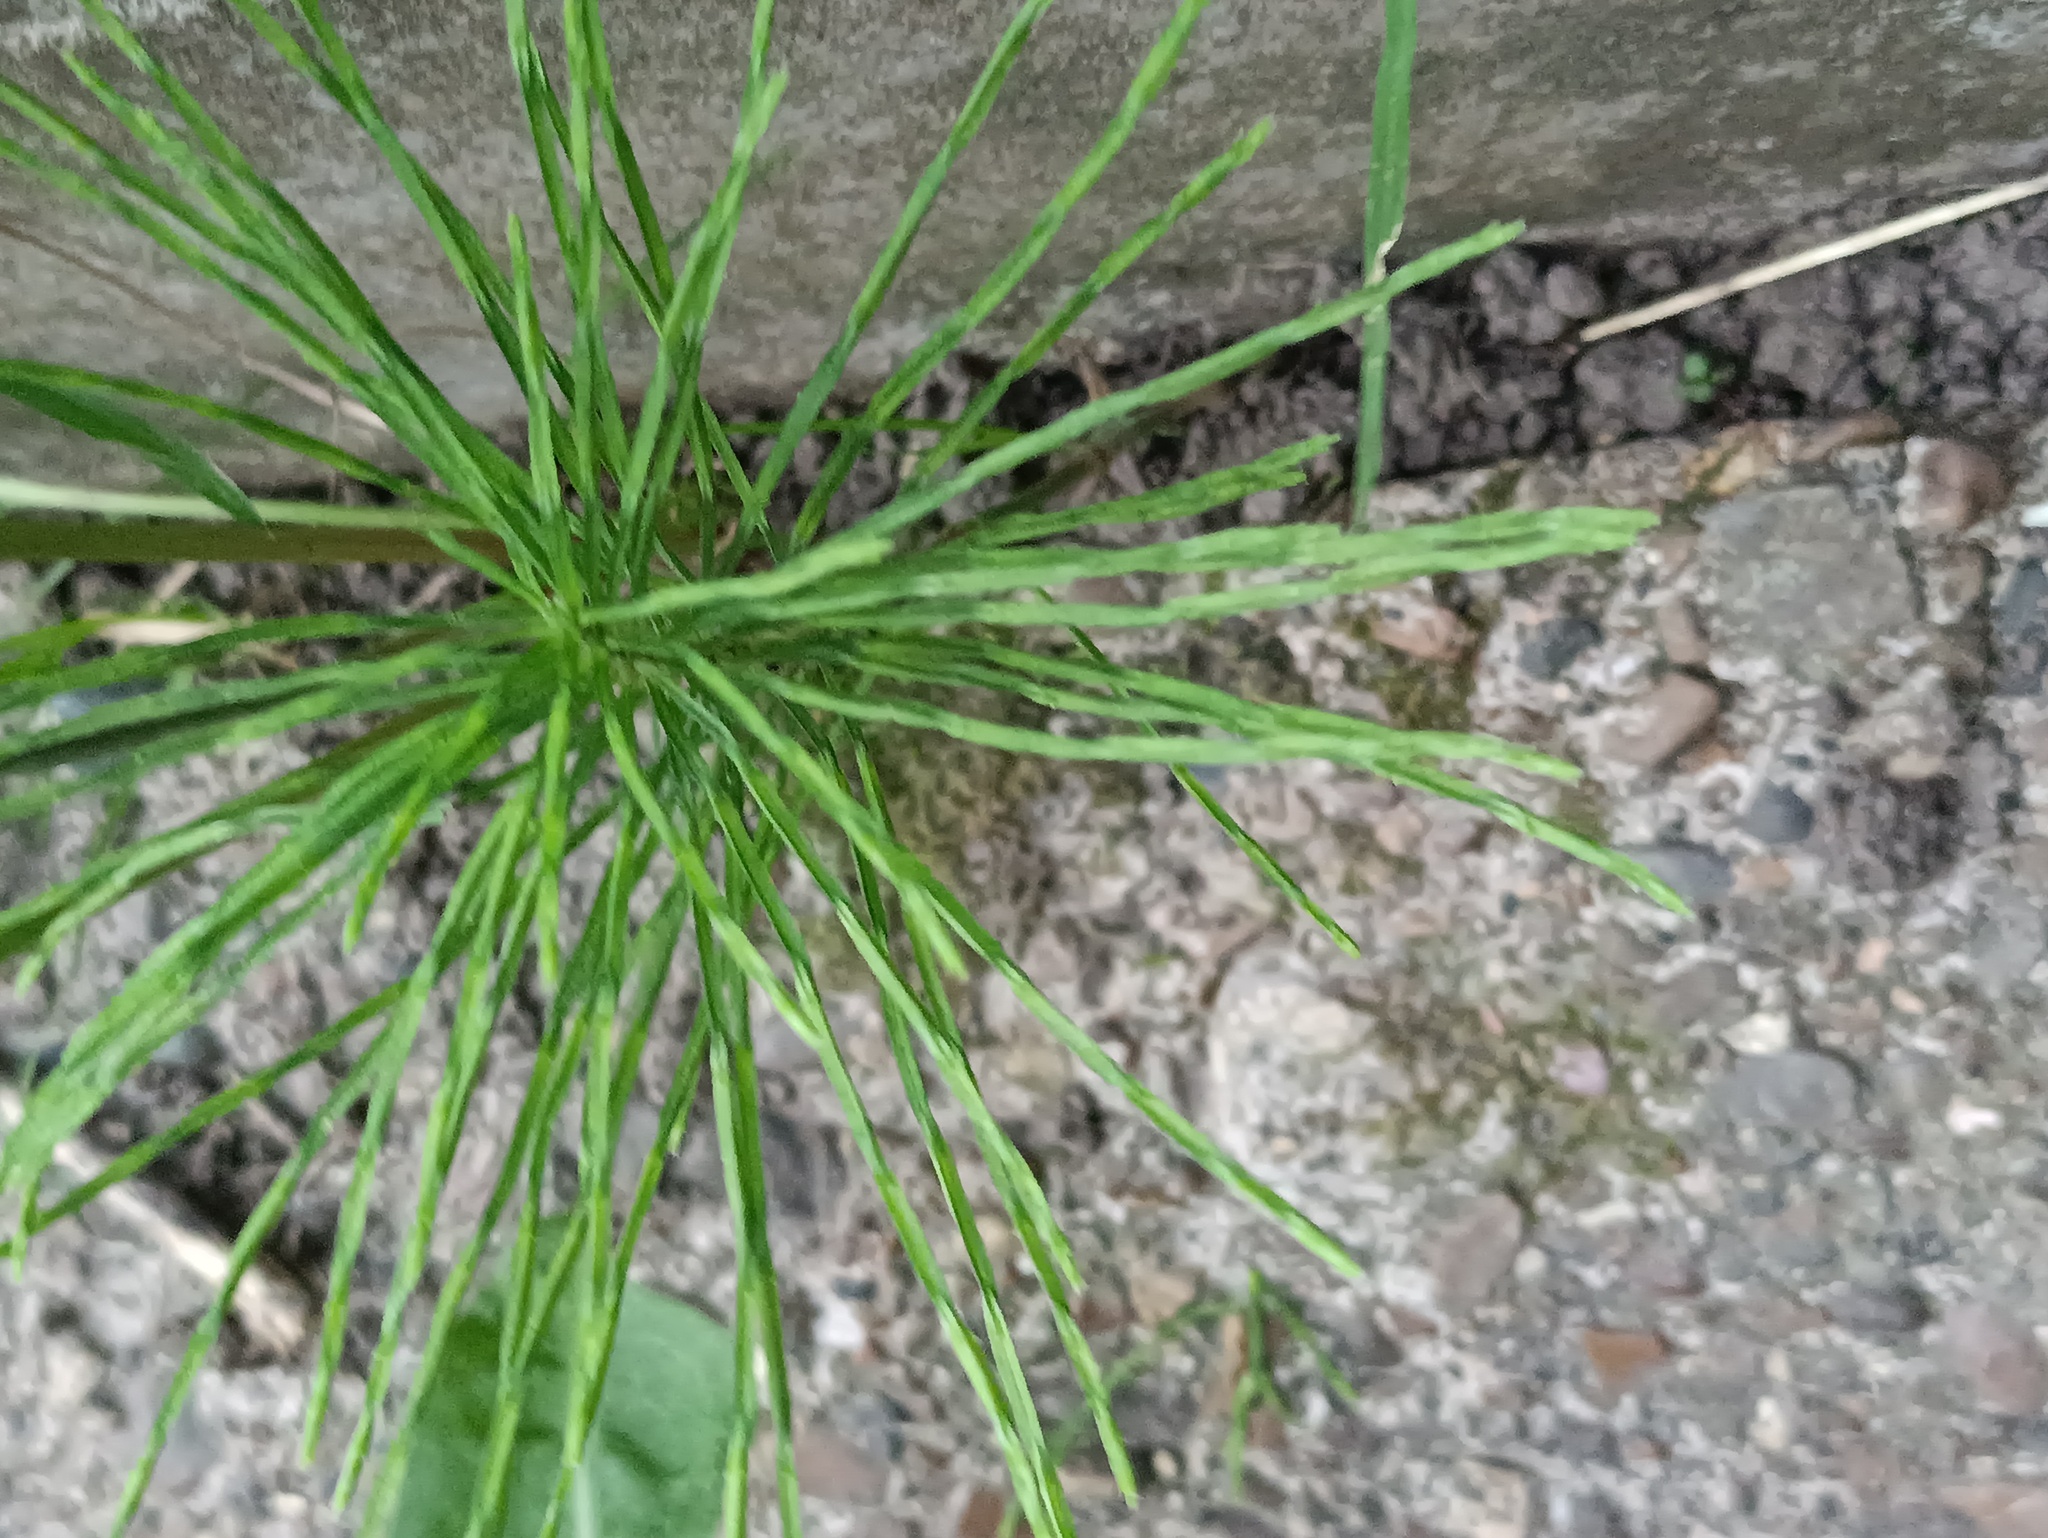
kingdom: Plantae
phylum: Tracheophyta
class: Polypodiopsida
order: Equisetales
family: Equisetaceae
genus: Equisetum
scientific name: Equisetum arvense
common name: Field horsetail
